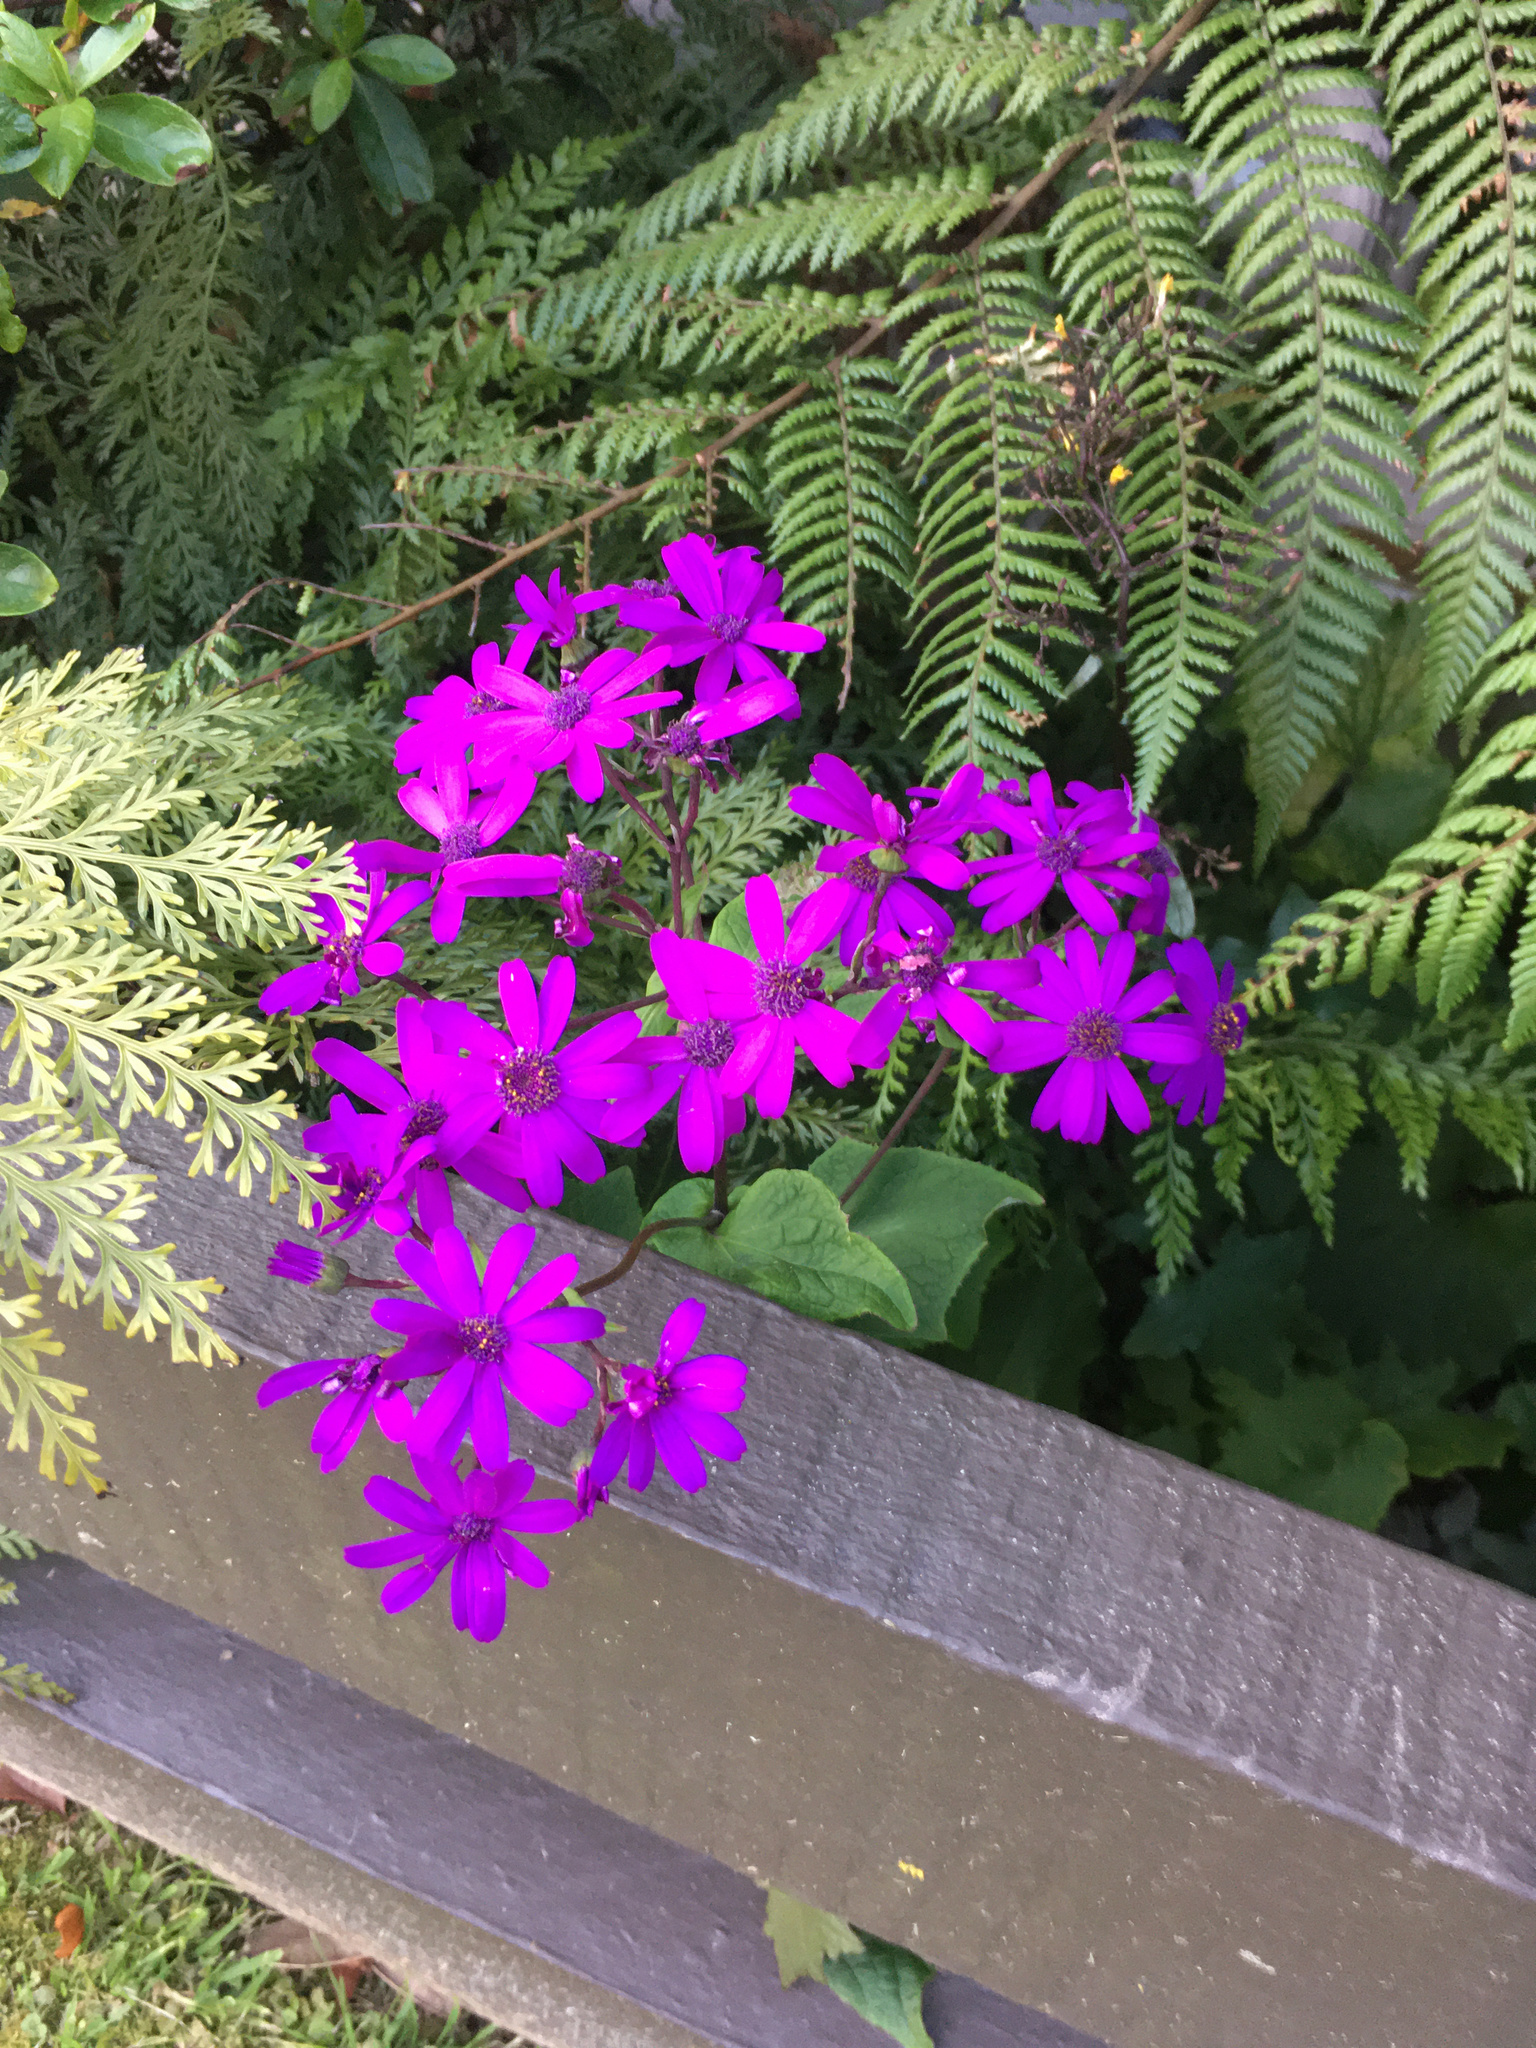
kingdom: Plantae
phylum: Tracheophyta
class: Magnoliopsida
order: Asterales
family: Asteraceae
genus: Pericallis
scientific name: Pericallis hybrida
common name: Cineraria
